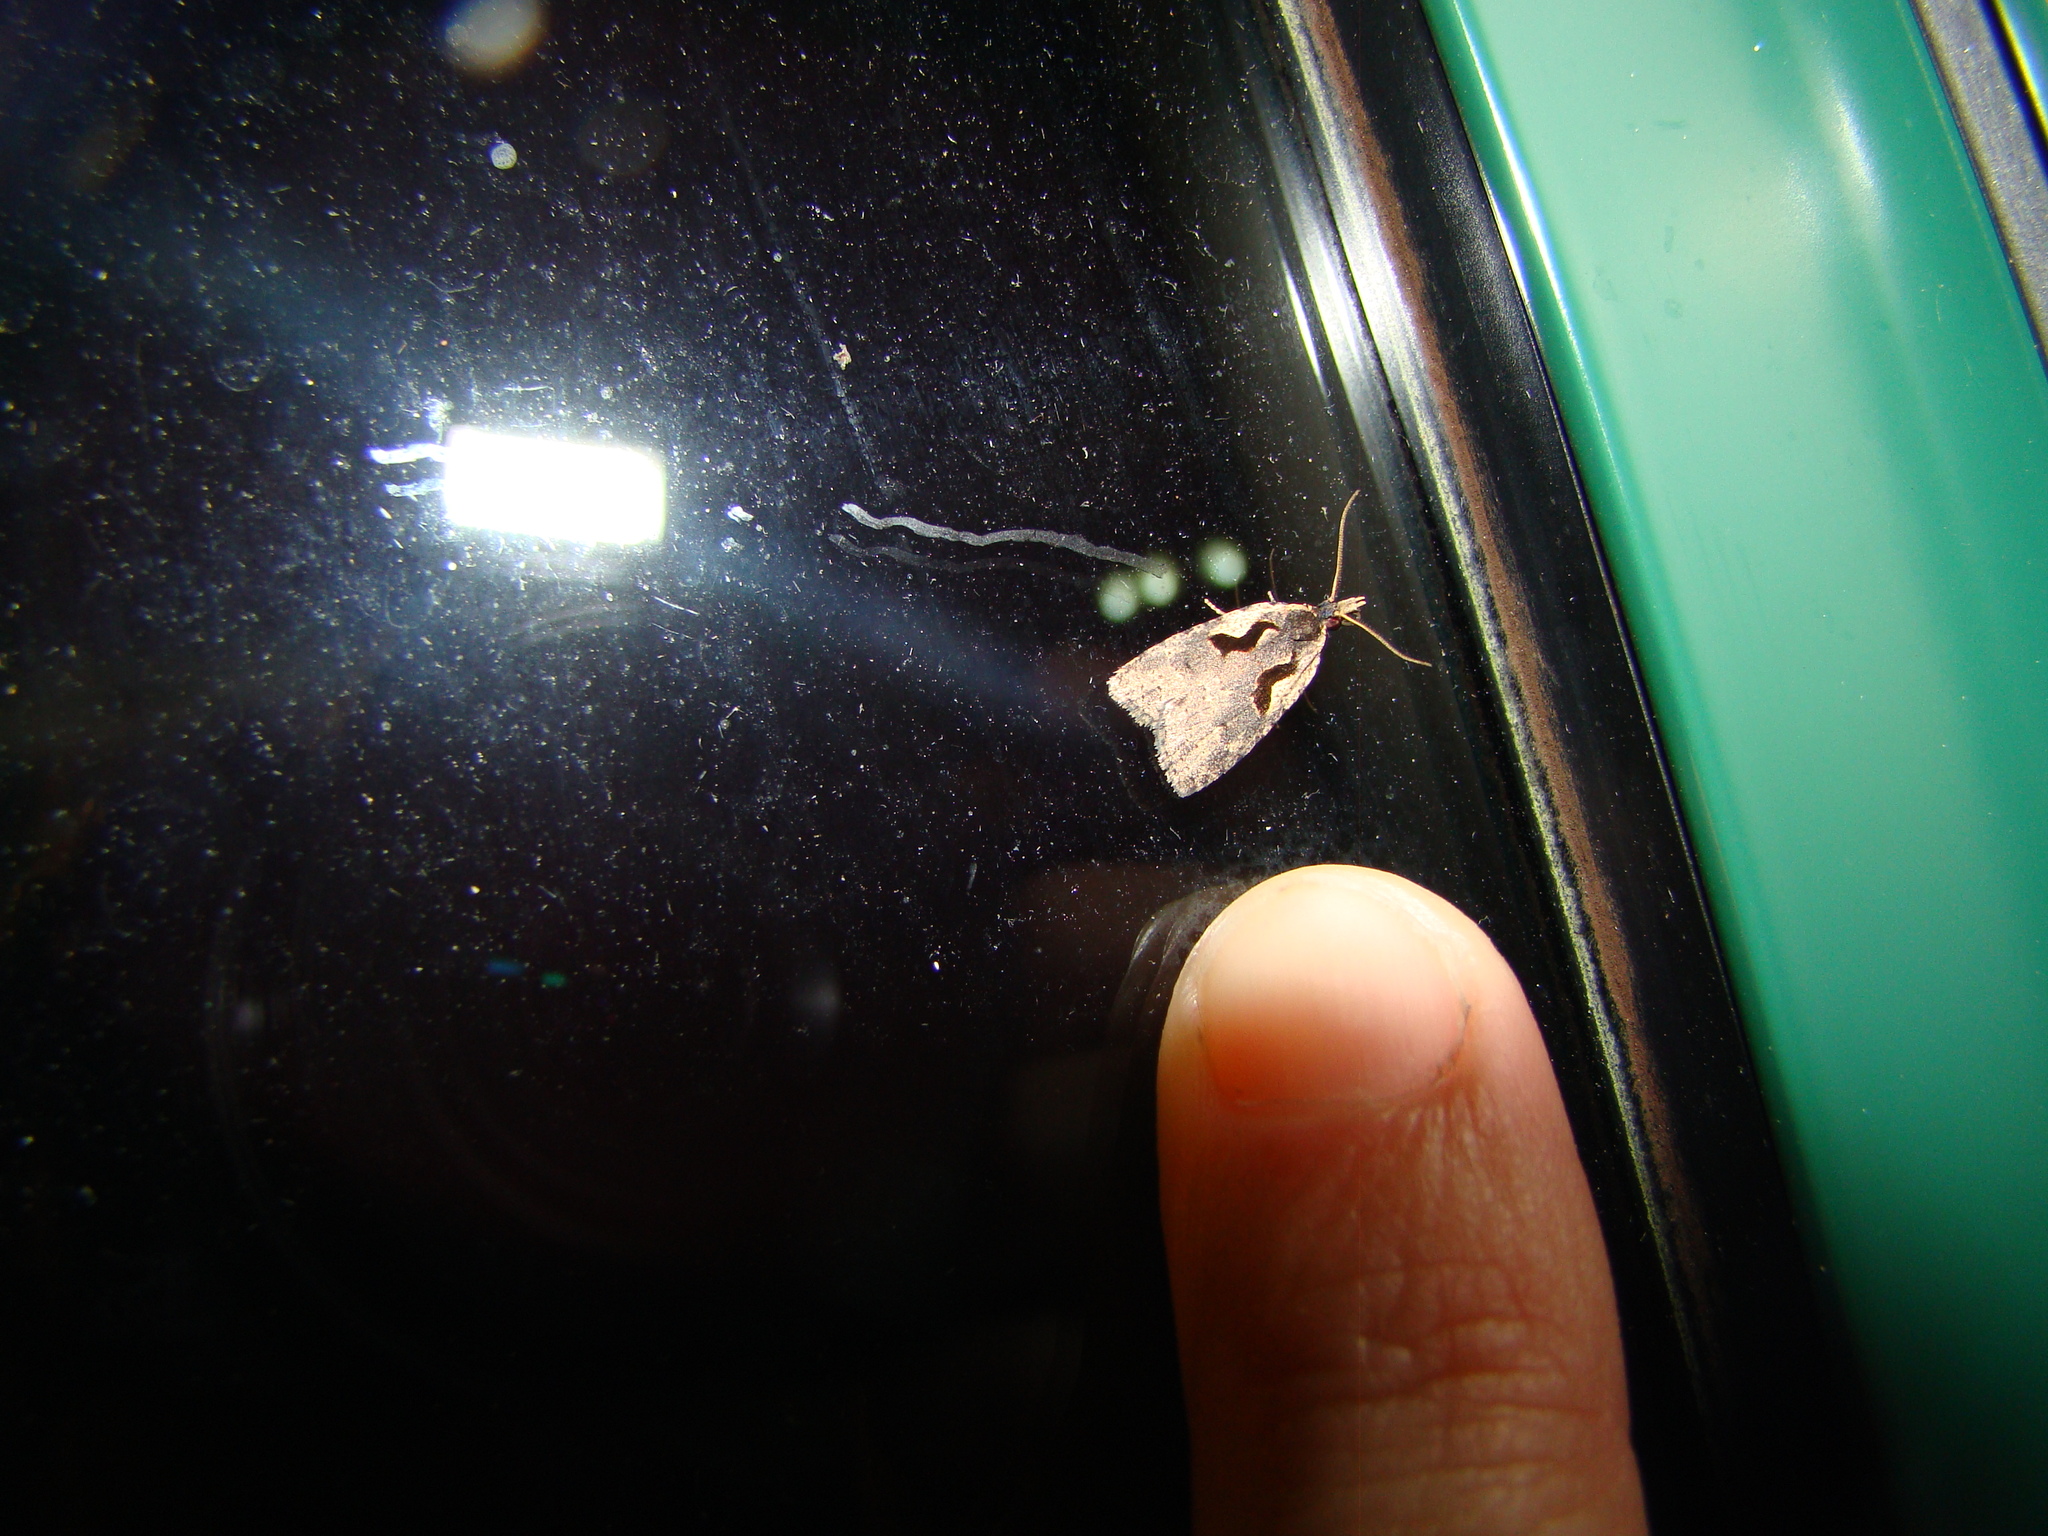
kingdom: Animalia
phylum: Arthropoda
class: Insecta
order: Lepidoptera
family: Tortricidae
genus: Cnephasia
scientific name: Cnephasia jactatana
